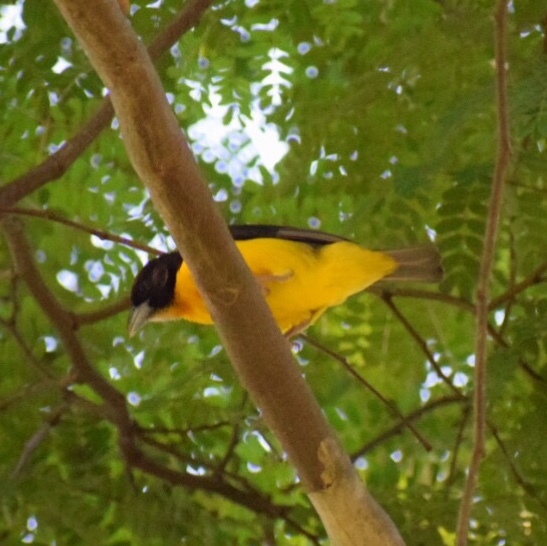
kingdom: Animalia
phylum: Chordata
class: Aves
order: Passeriformes
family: Ploceidae
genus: Ploceus
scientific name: Ploceus bicolor
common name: Dark-backed weaver
